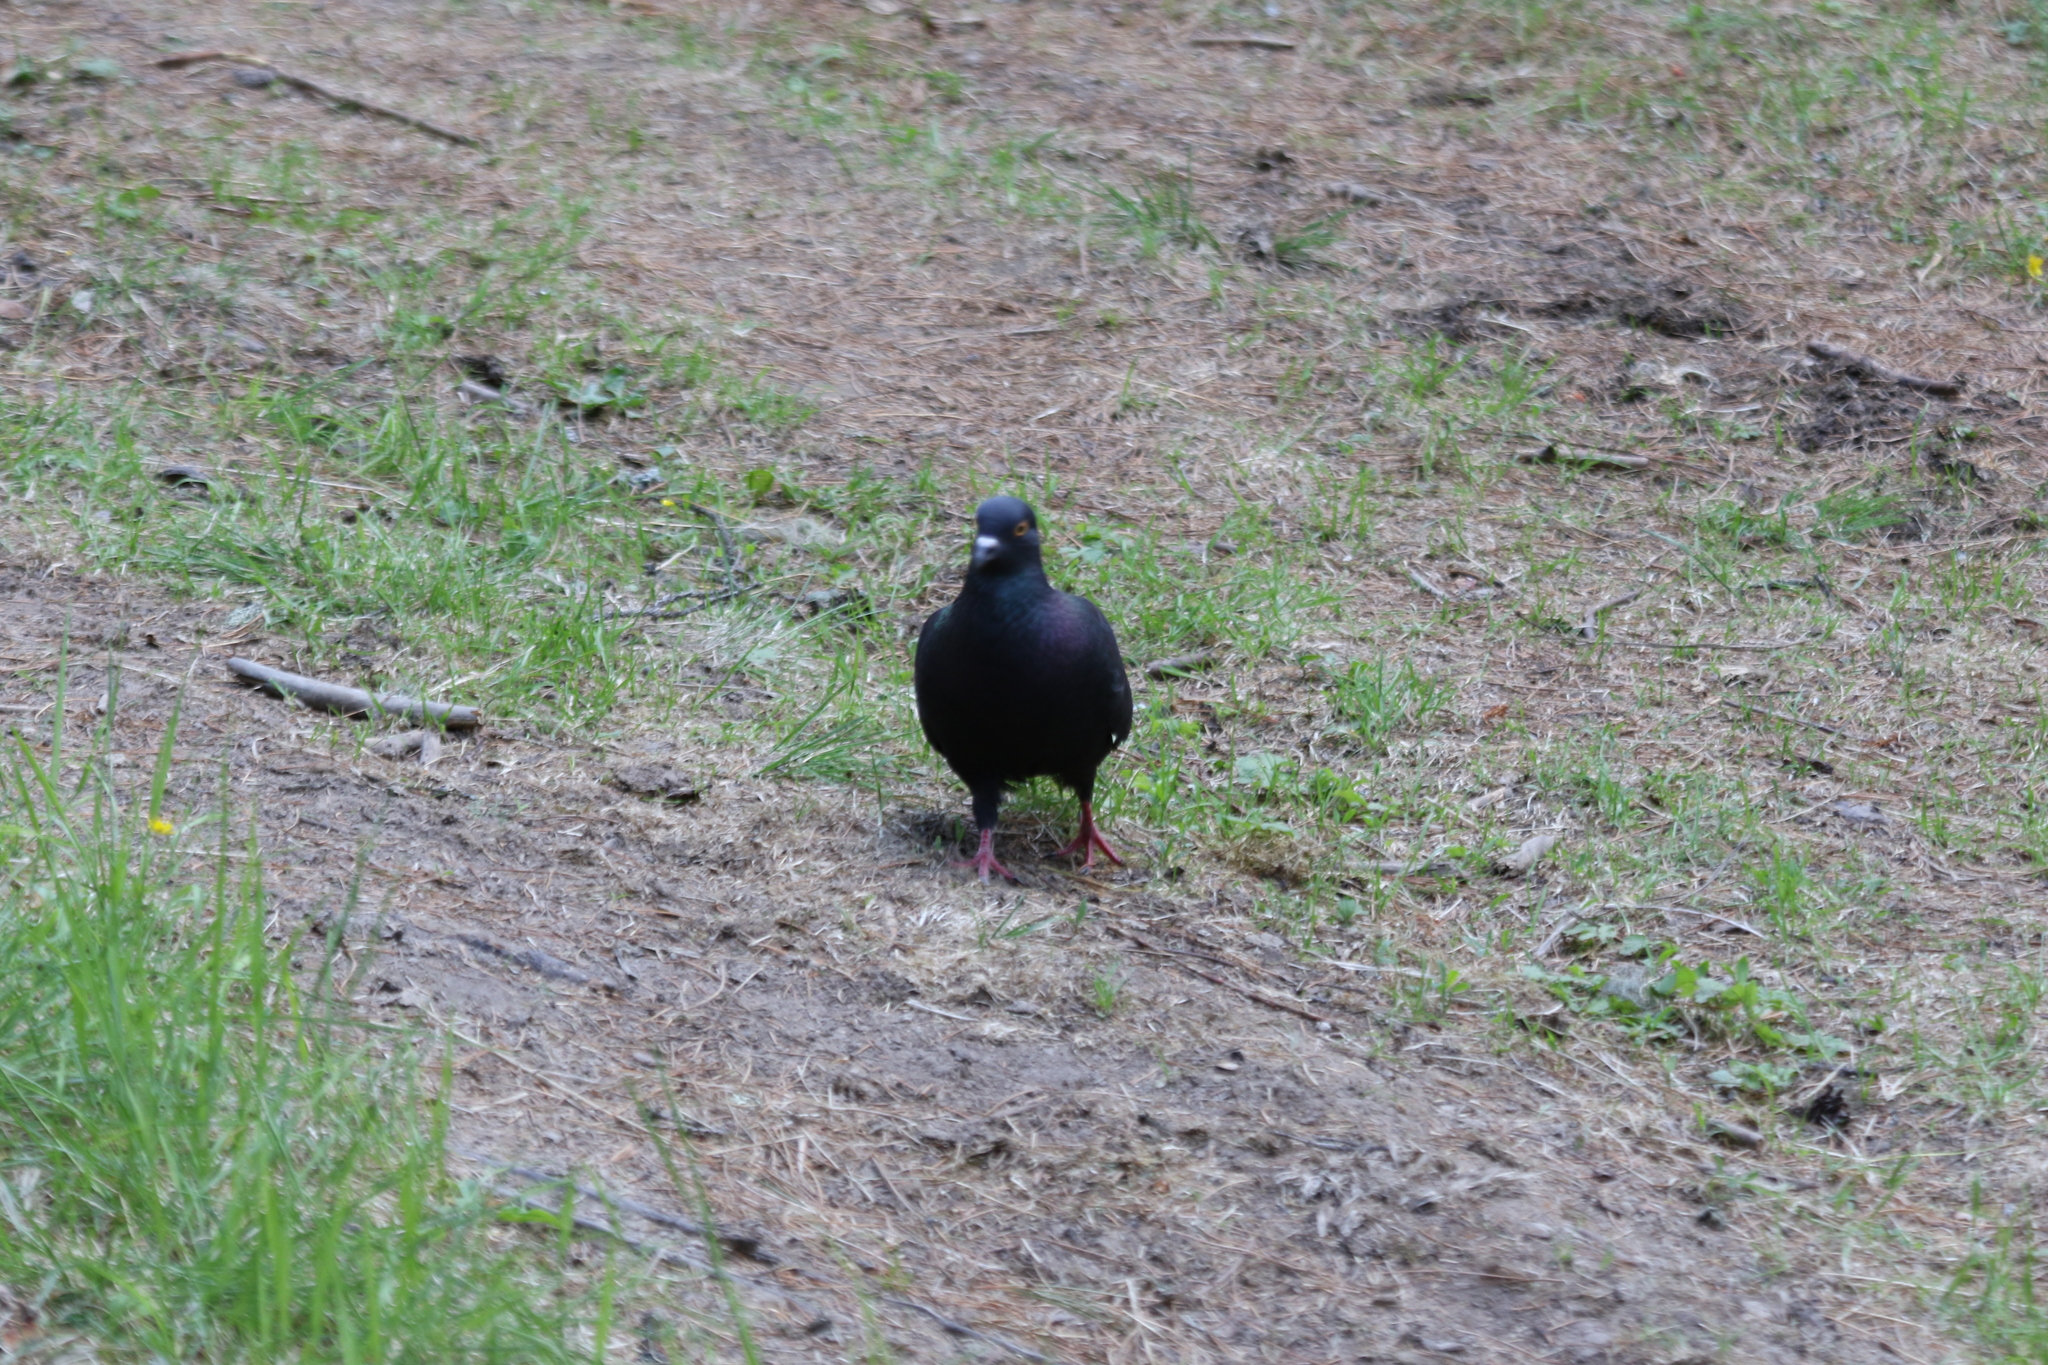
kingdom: Animalia
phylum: Chordata
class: Aves
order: Columbiformes
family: Columbidae
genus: Columba
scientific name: Columba livia
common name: Rock pigeon
